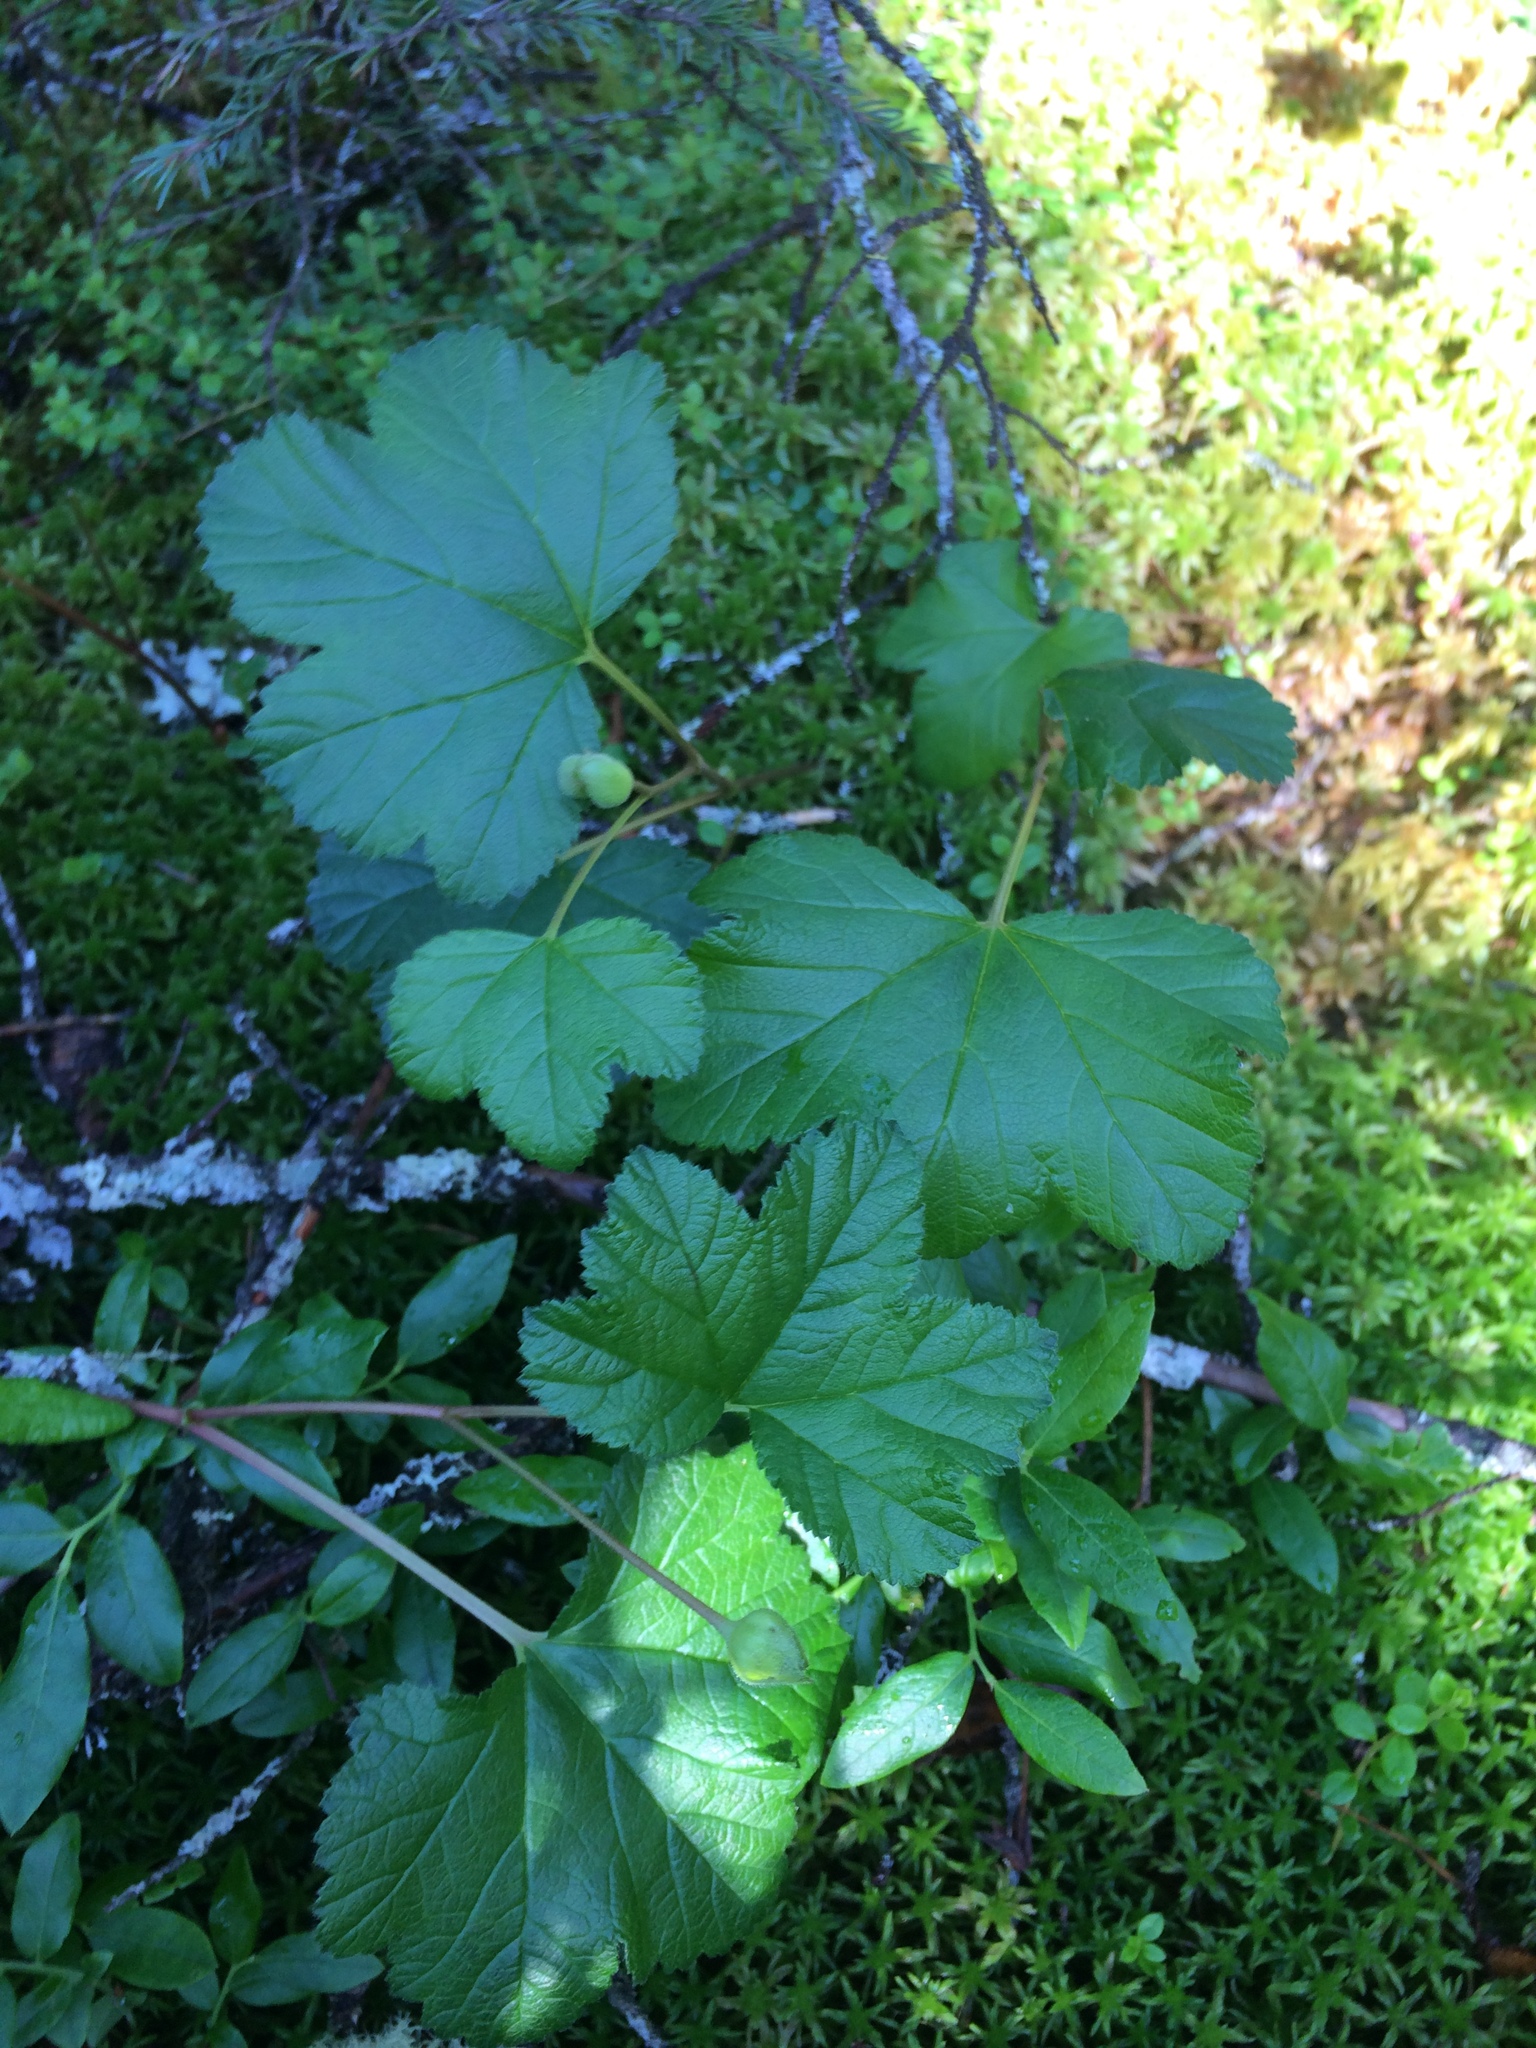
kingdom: Plantae
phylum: Tracheophyta
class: Magnoliopsida
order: Rosales
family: Rosaceae
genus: Rubus
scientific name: Rubus chamaemorus
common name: Cloudberry
